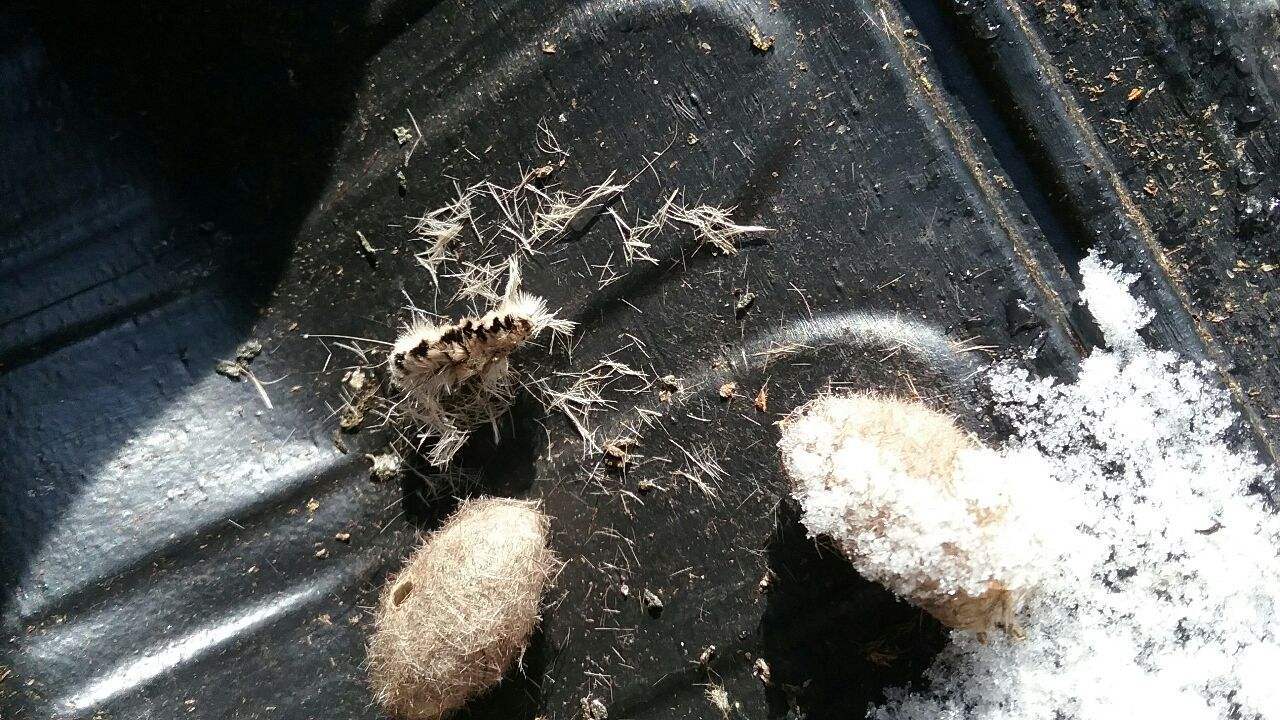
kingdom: Animalia
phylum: Arthropoda
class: Insecta
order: Lepidoptera
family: Erebidae
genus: Lophocampa
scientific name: Lophocampa caryae
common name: Hickory tussock moth
